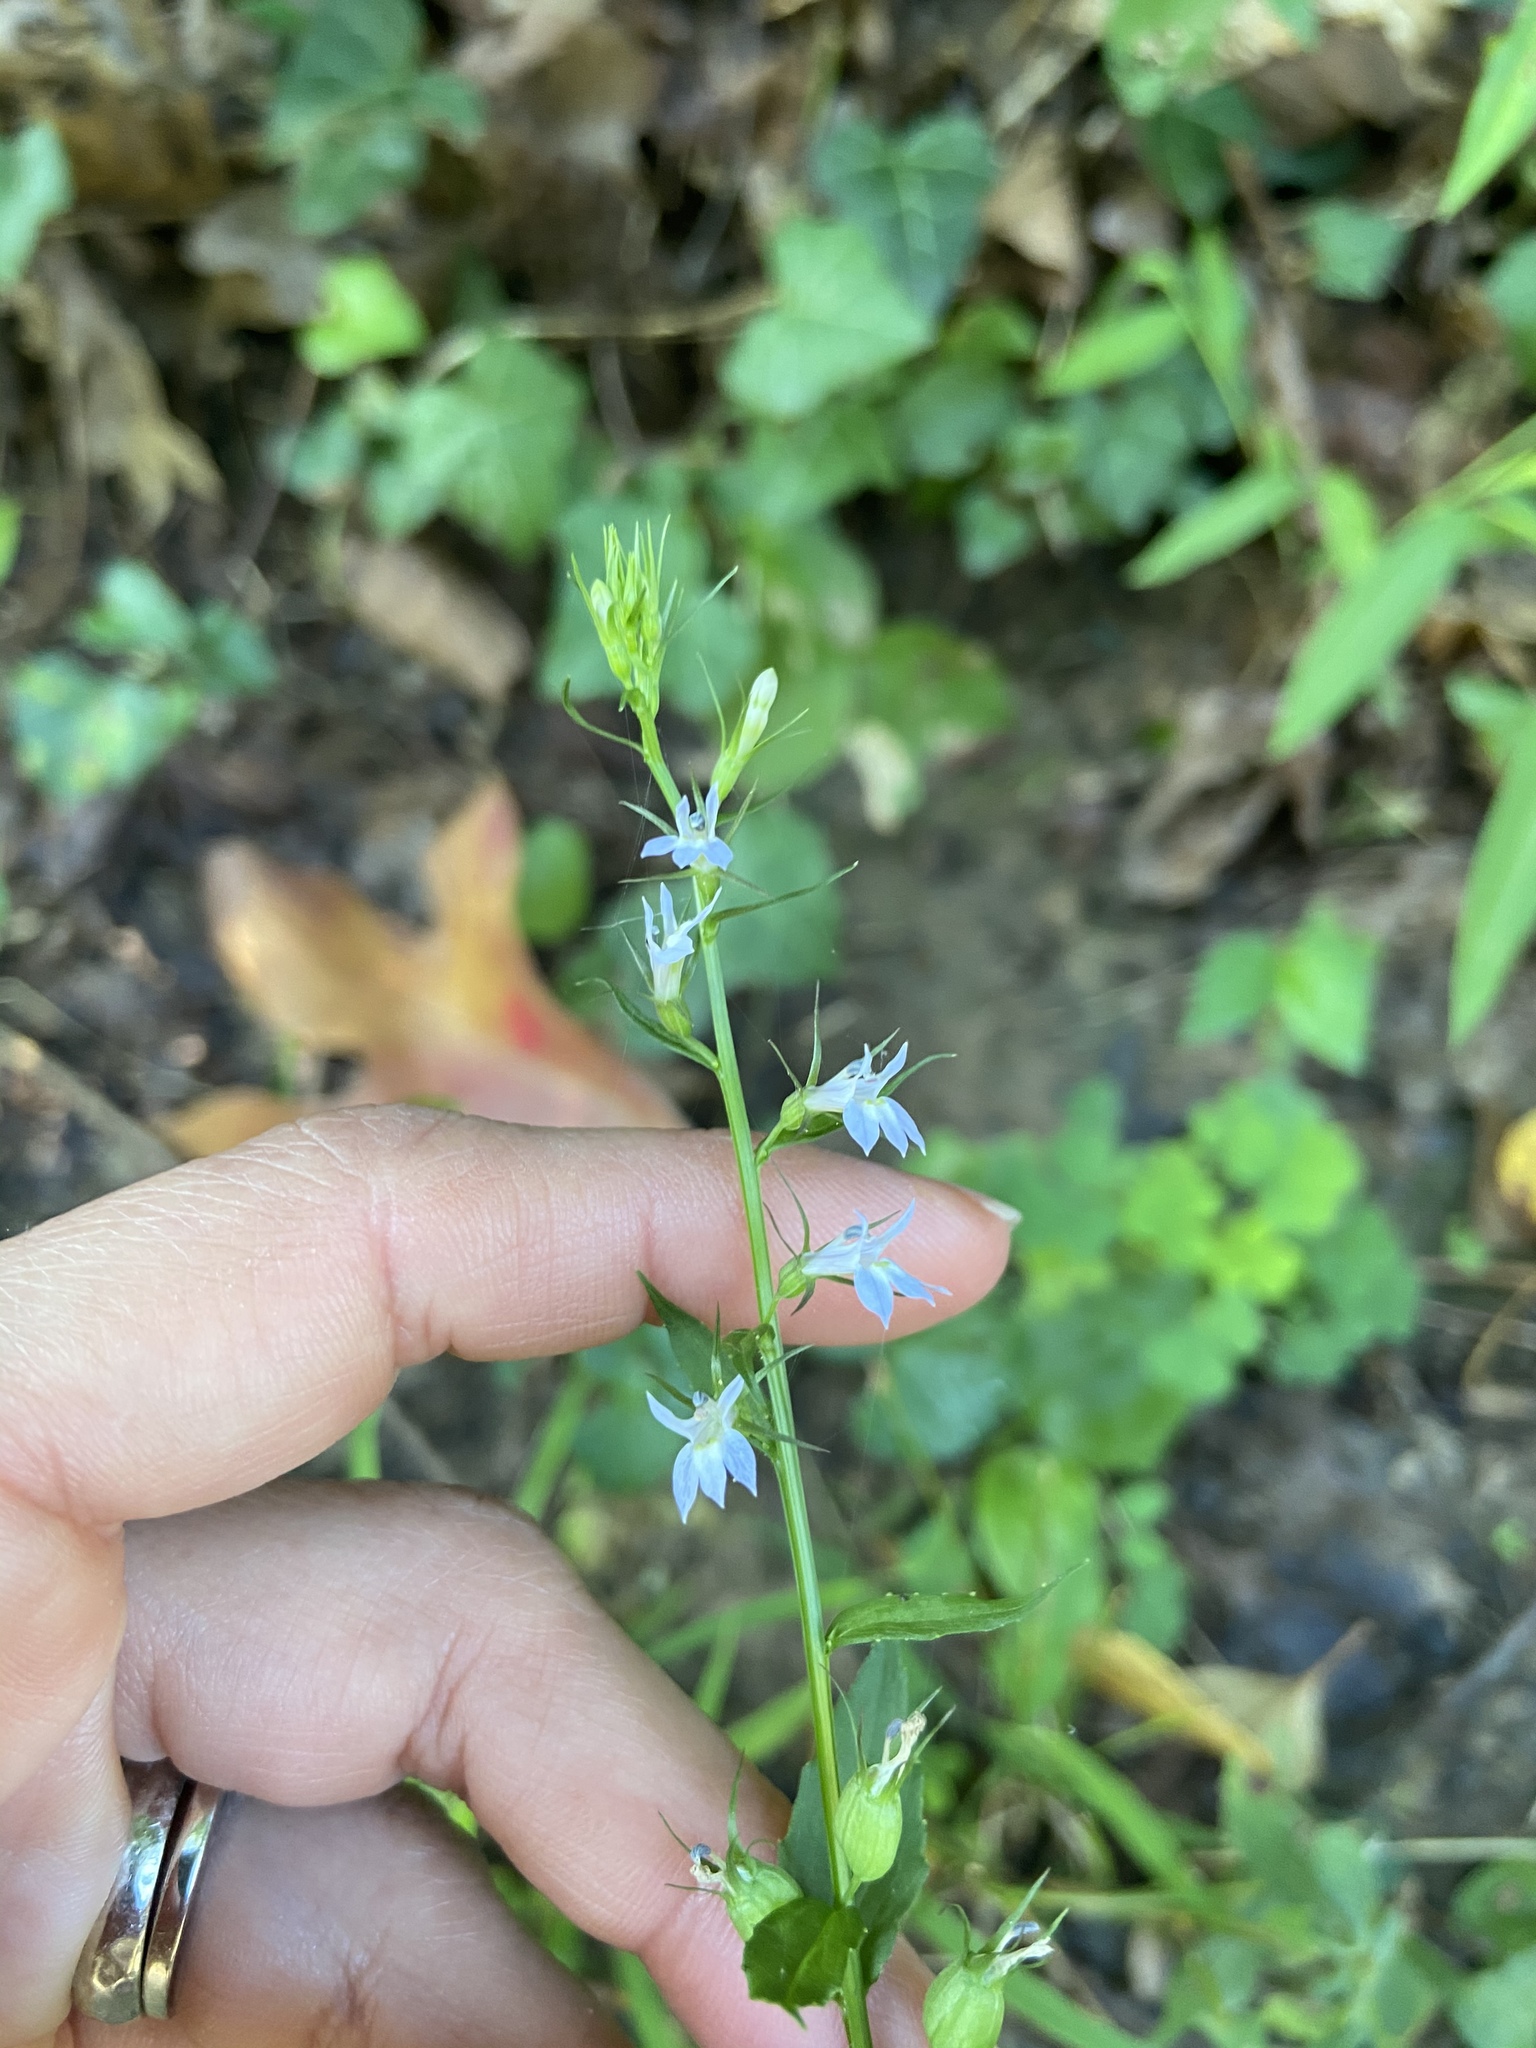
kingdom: Plantae
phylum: Tracheophyta
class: Magnoliopsida
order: Asterales
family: Campanulaceae
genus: Lobelia
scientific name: Lobelia inflata
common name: Indian tobacco
